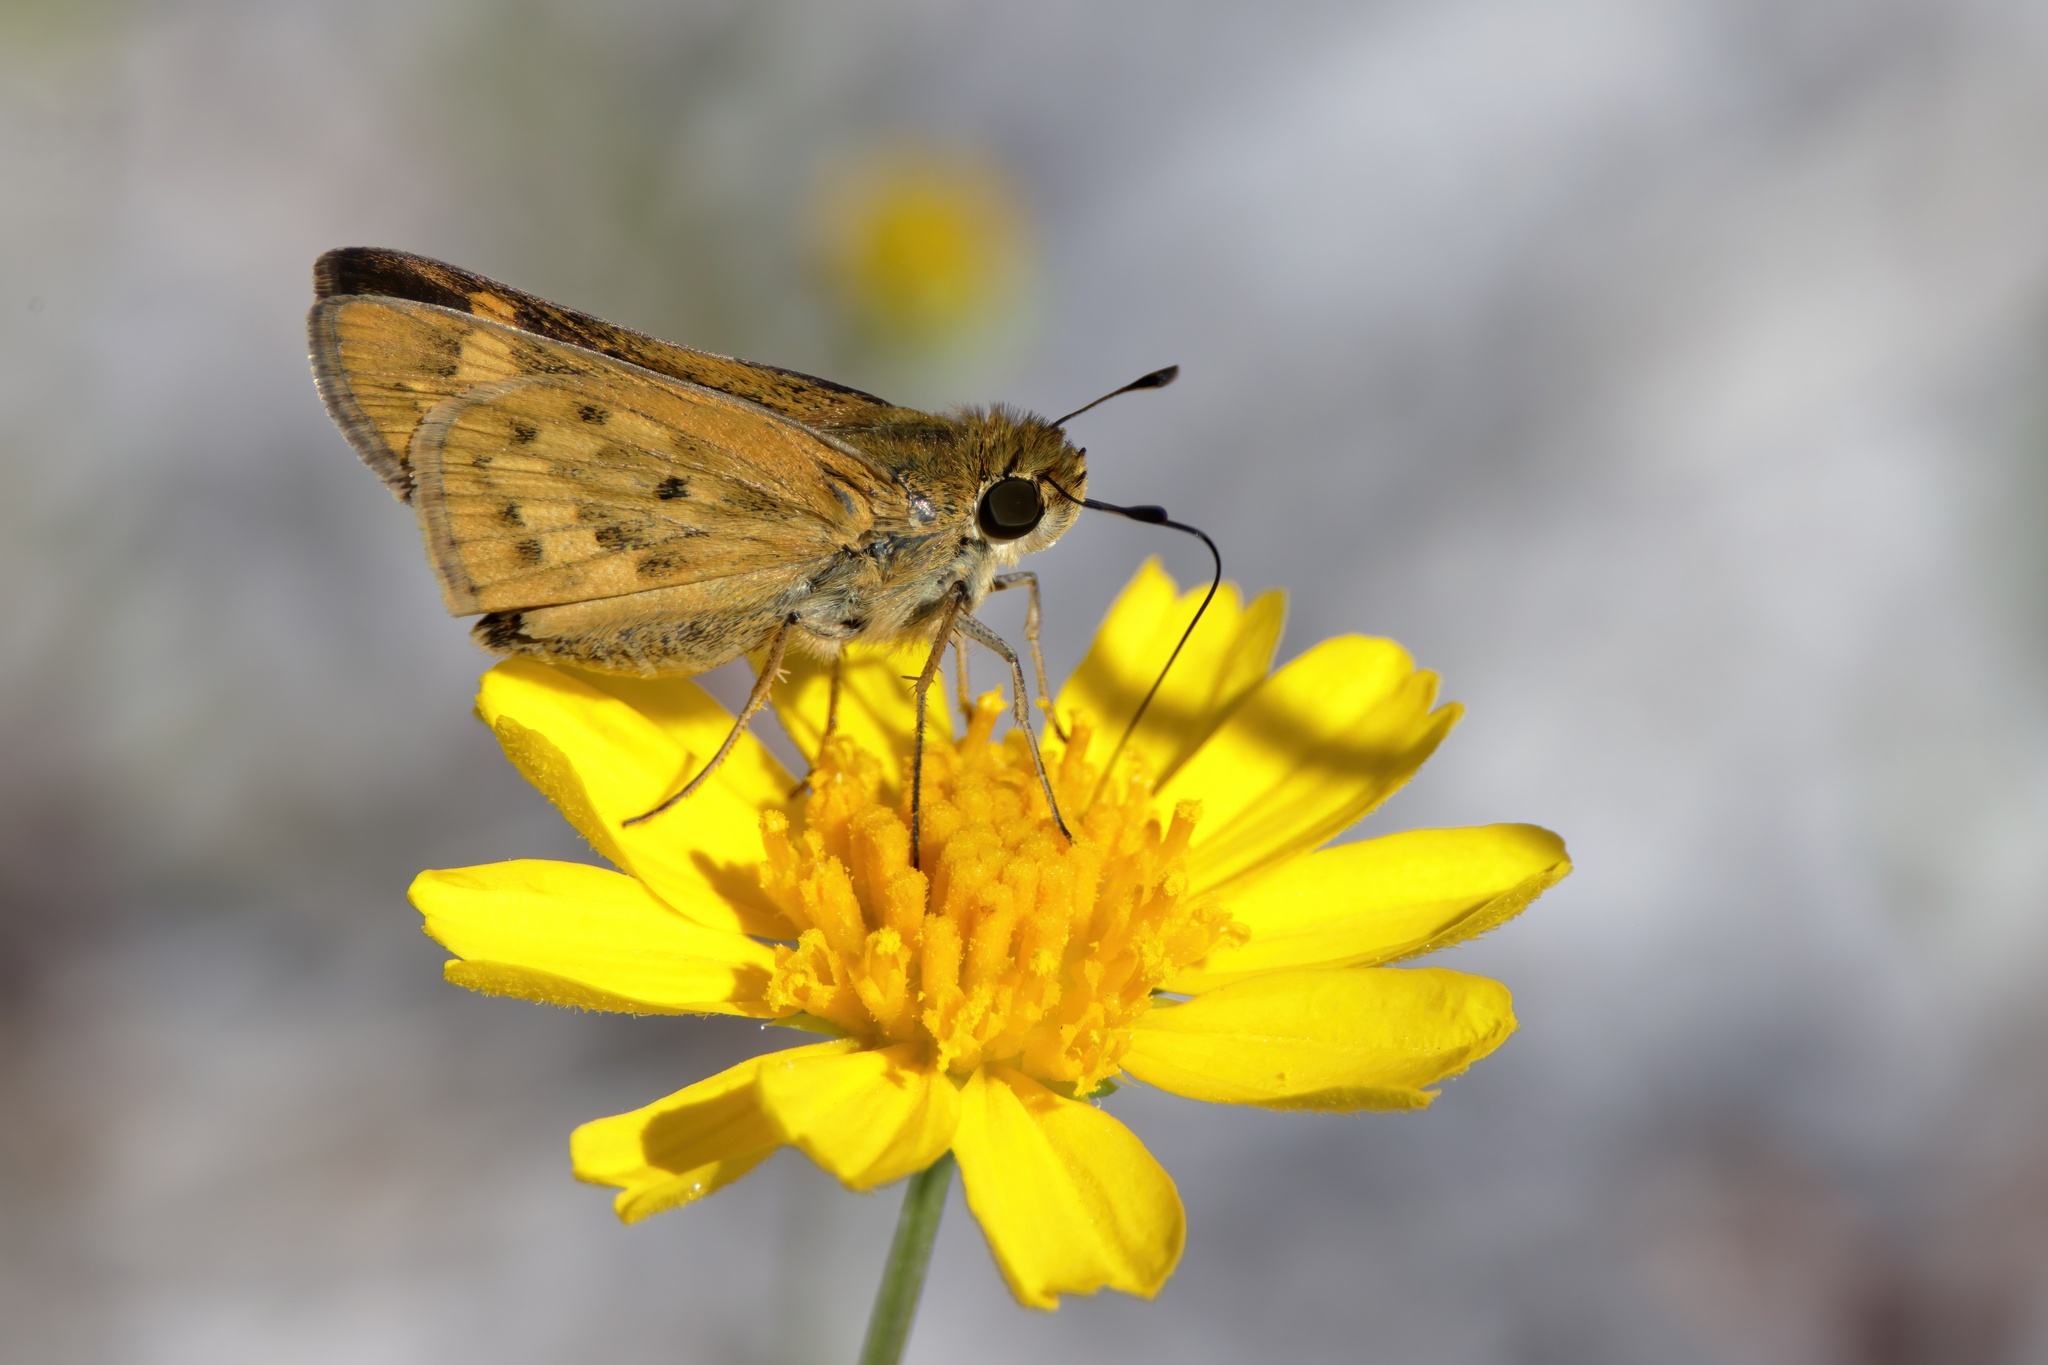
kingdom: Animalia
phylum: Arthropoda
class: Insecta
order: Lepidoptera
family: Hesperiidae
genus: Hylephila
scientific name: Hylephila phyleus
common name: Fiery skipper
